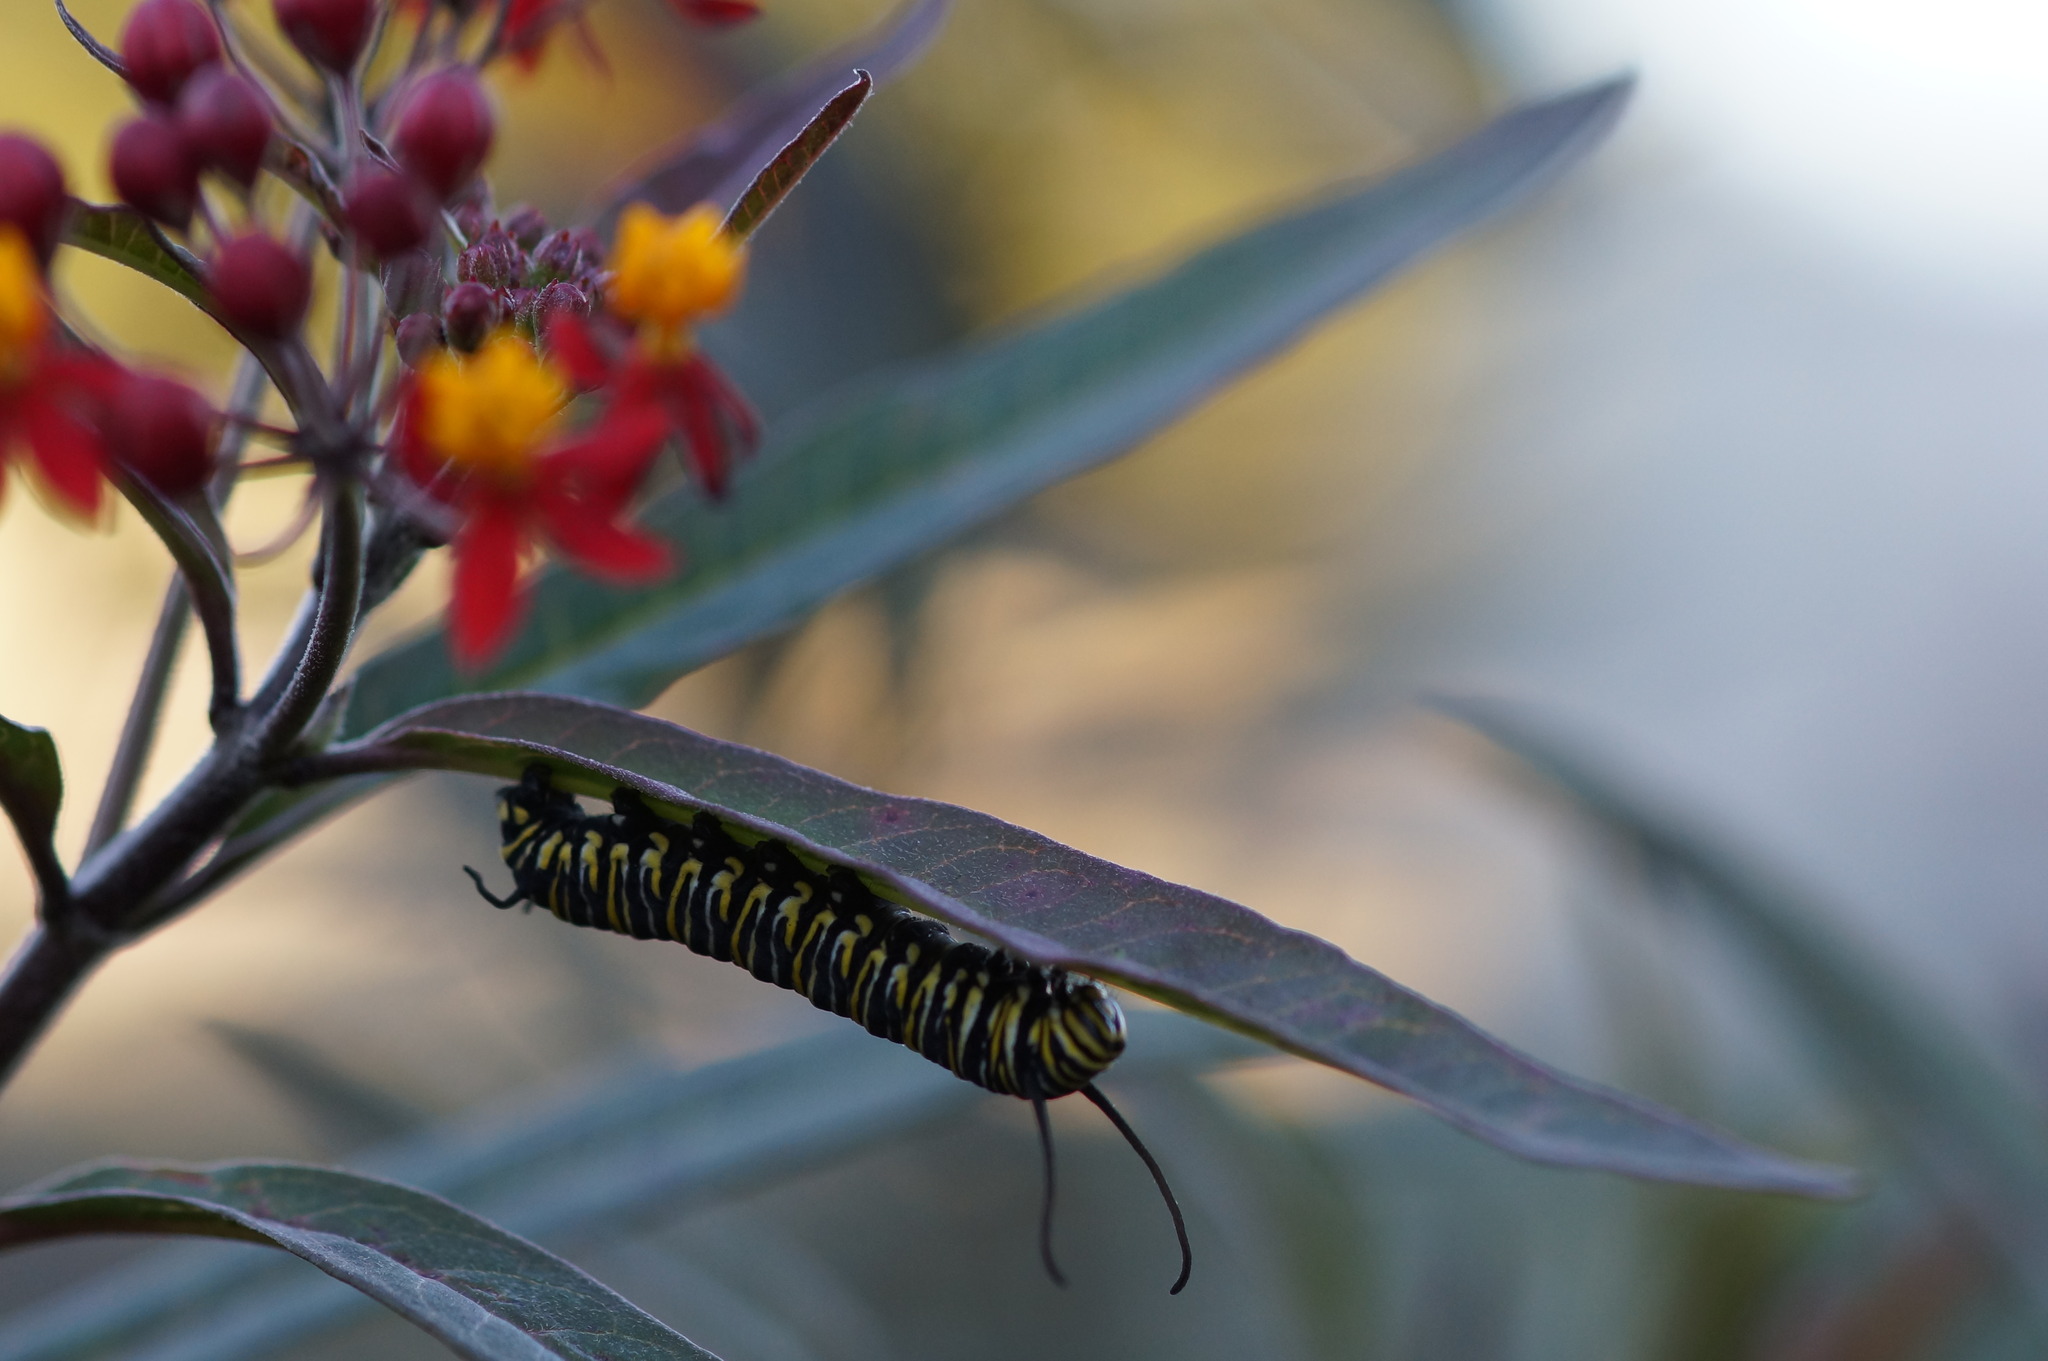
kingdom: Animalia
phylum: Arthropoda
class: Insecta
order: Lepidoptera
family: Nymphalidae
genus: Danaus
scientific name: Danaus plexippus
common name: Monarch
